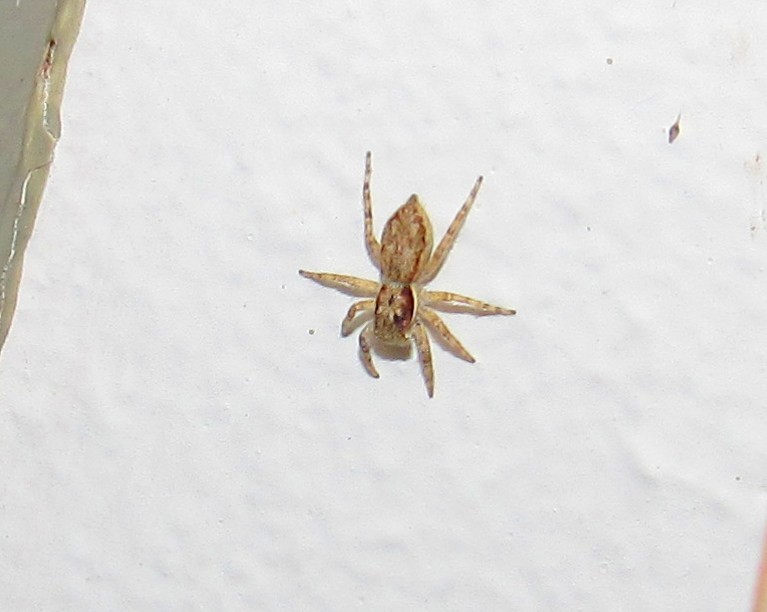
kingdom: Animalia
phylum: Arthropoda
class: Arachnida
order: Araneae
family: Salticidae
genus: Menemerus
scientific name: Menemerus bivittatus
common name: Gray wall jumper
